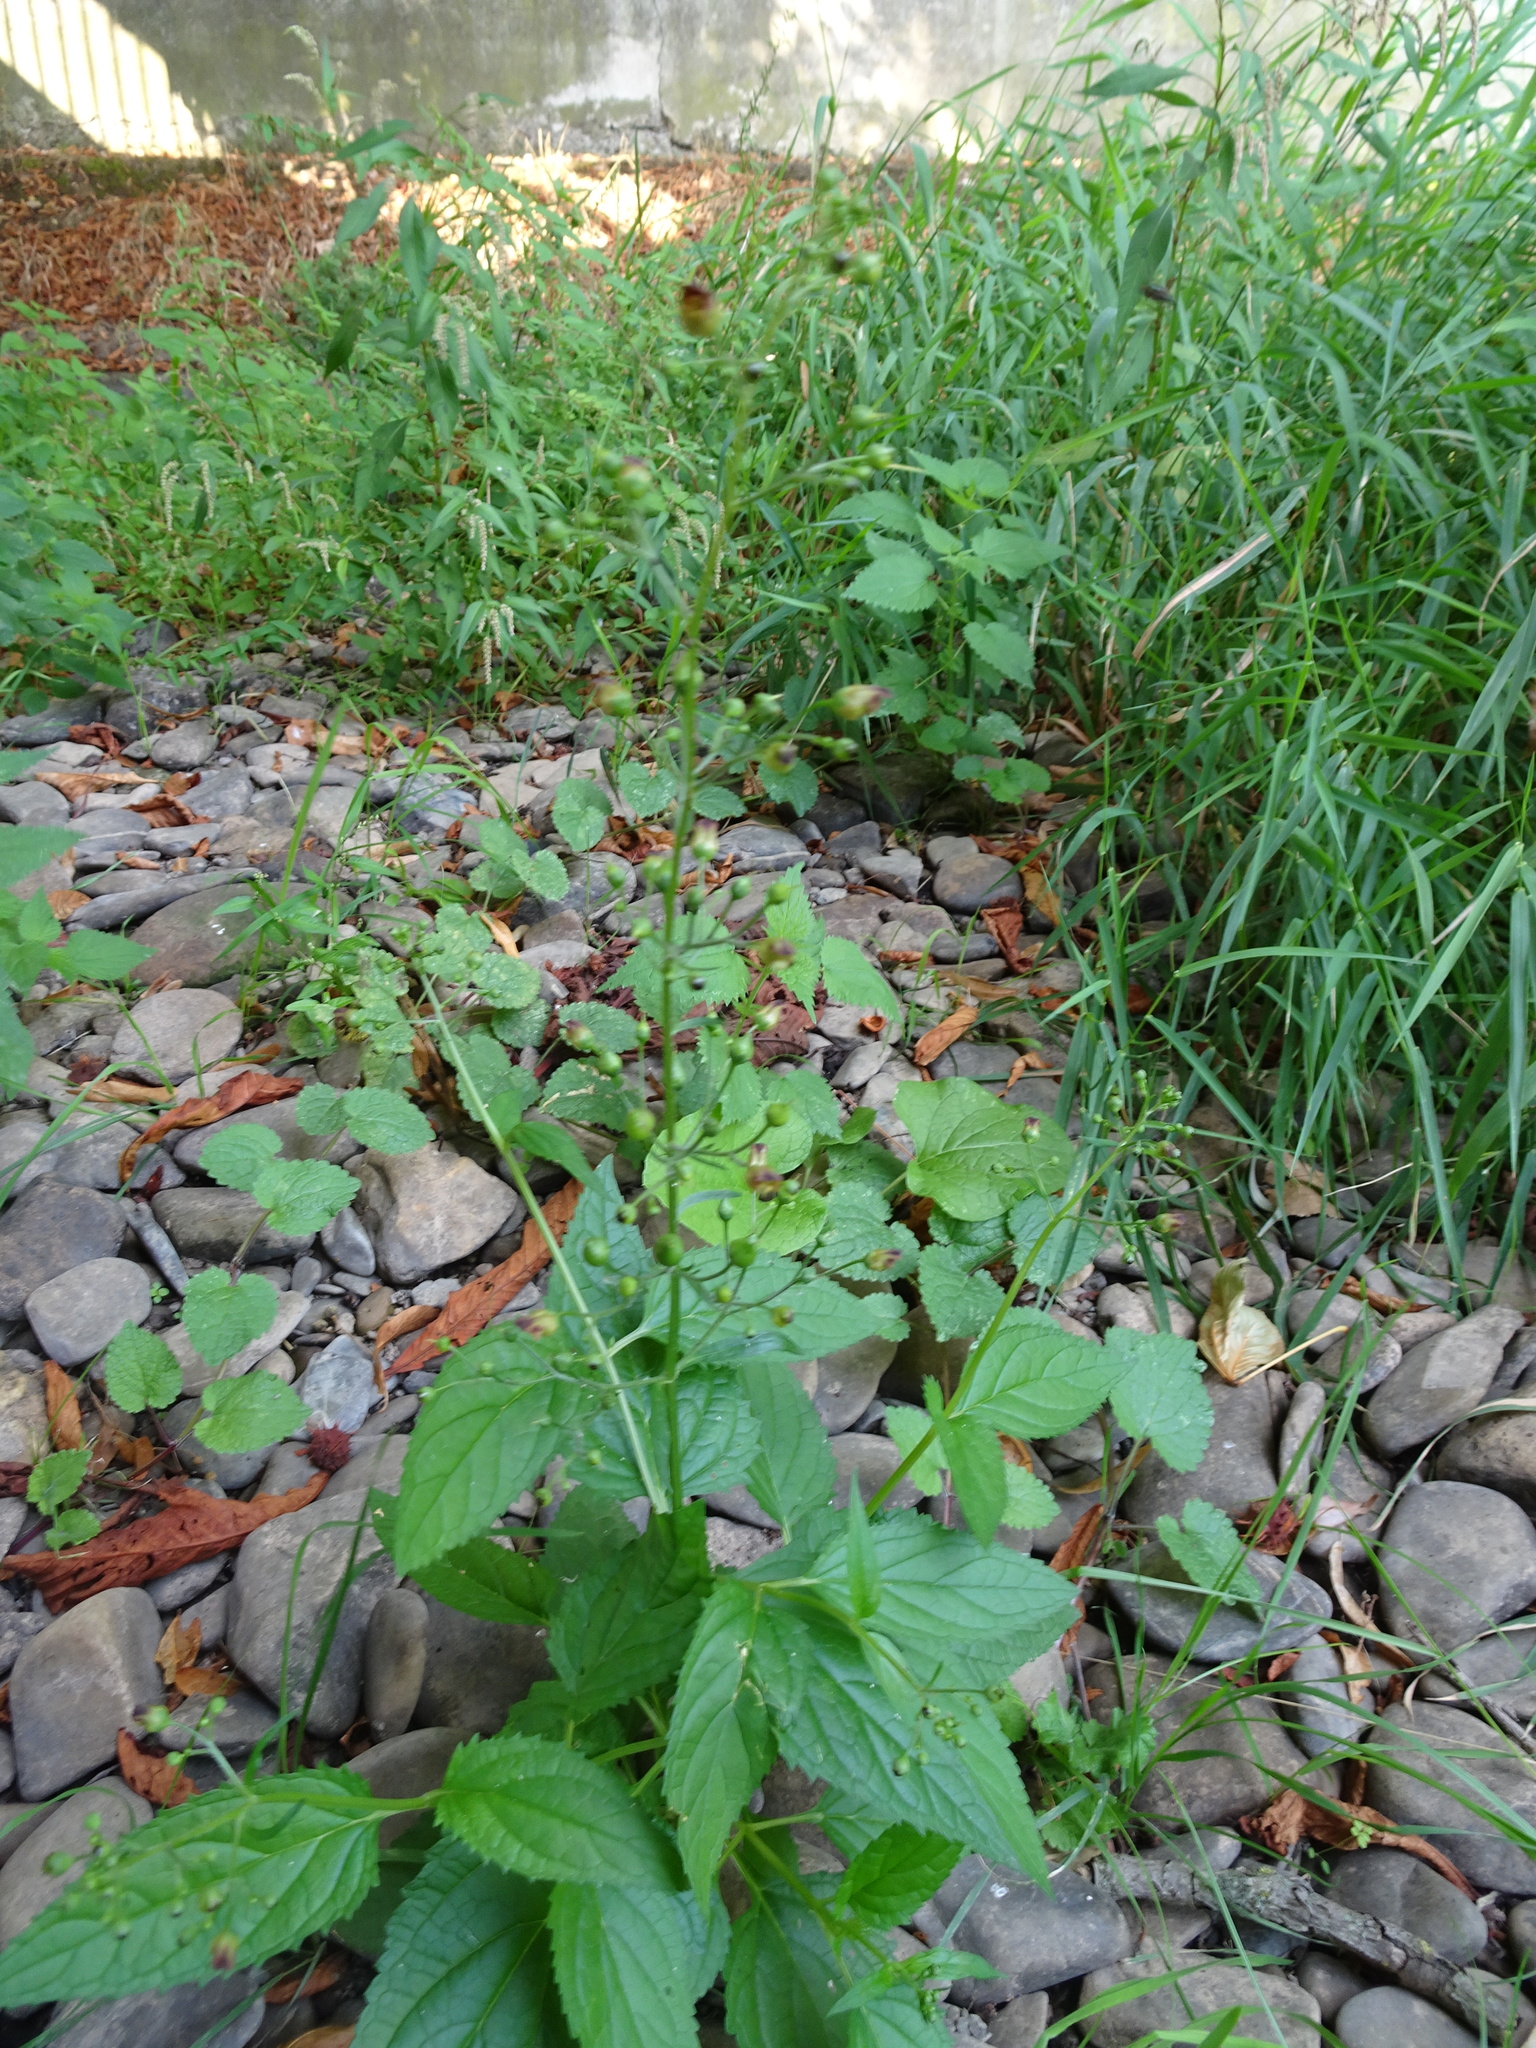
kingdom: Plantae
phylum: Tracheophyta
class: Magnoliopsida
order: Lamiales
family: Scrophulariaceae
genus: Scrophularia
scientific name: Scrophularia nodosa
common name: Common figwort
